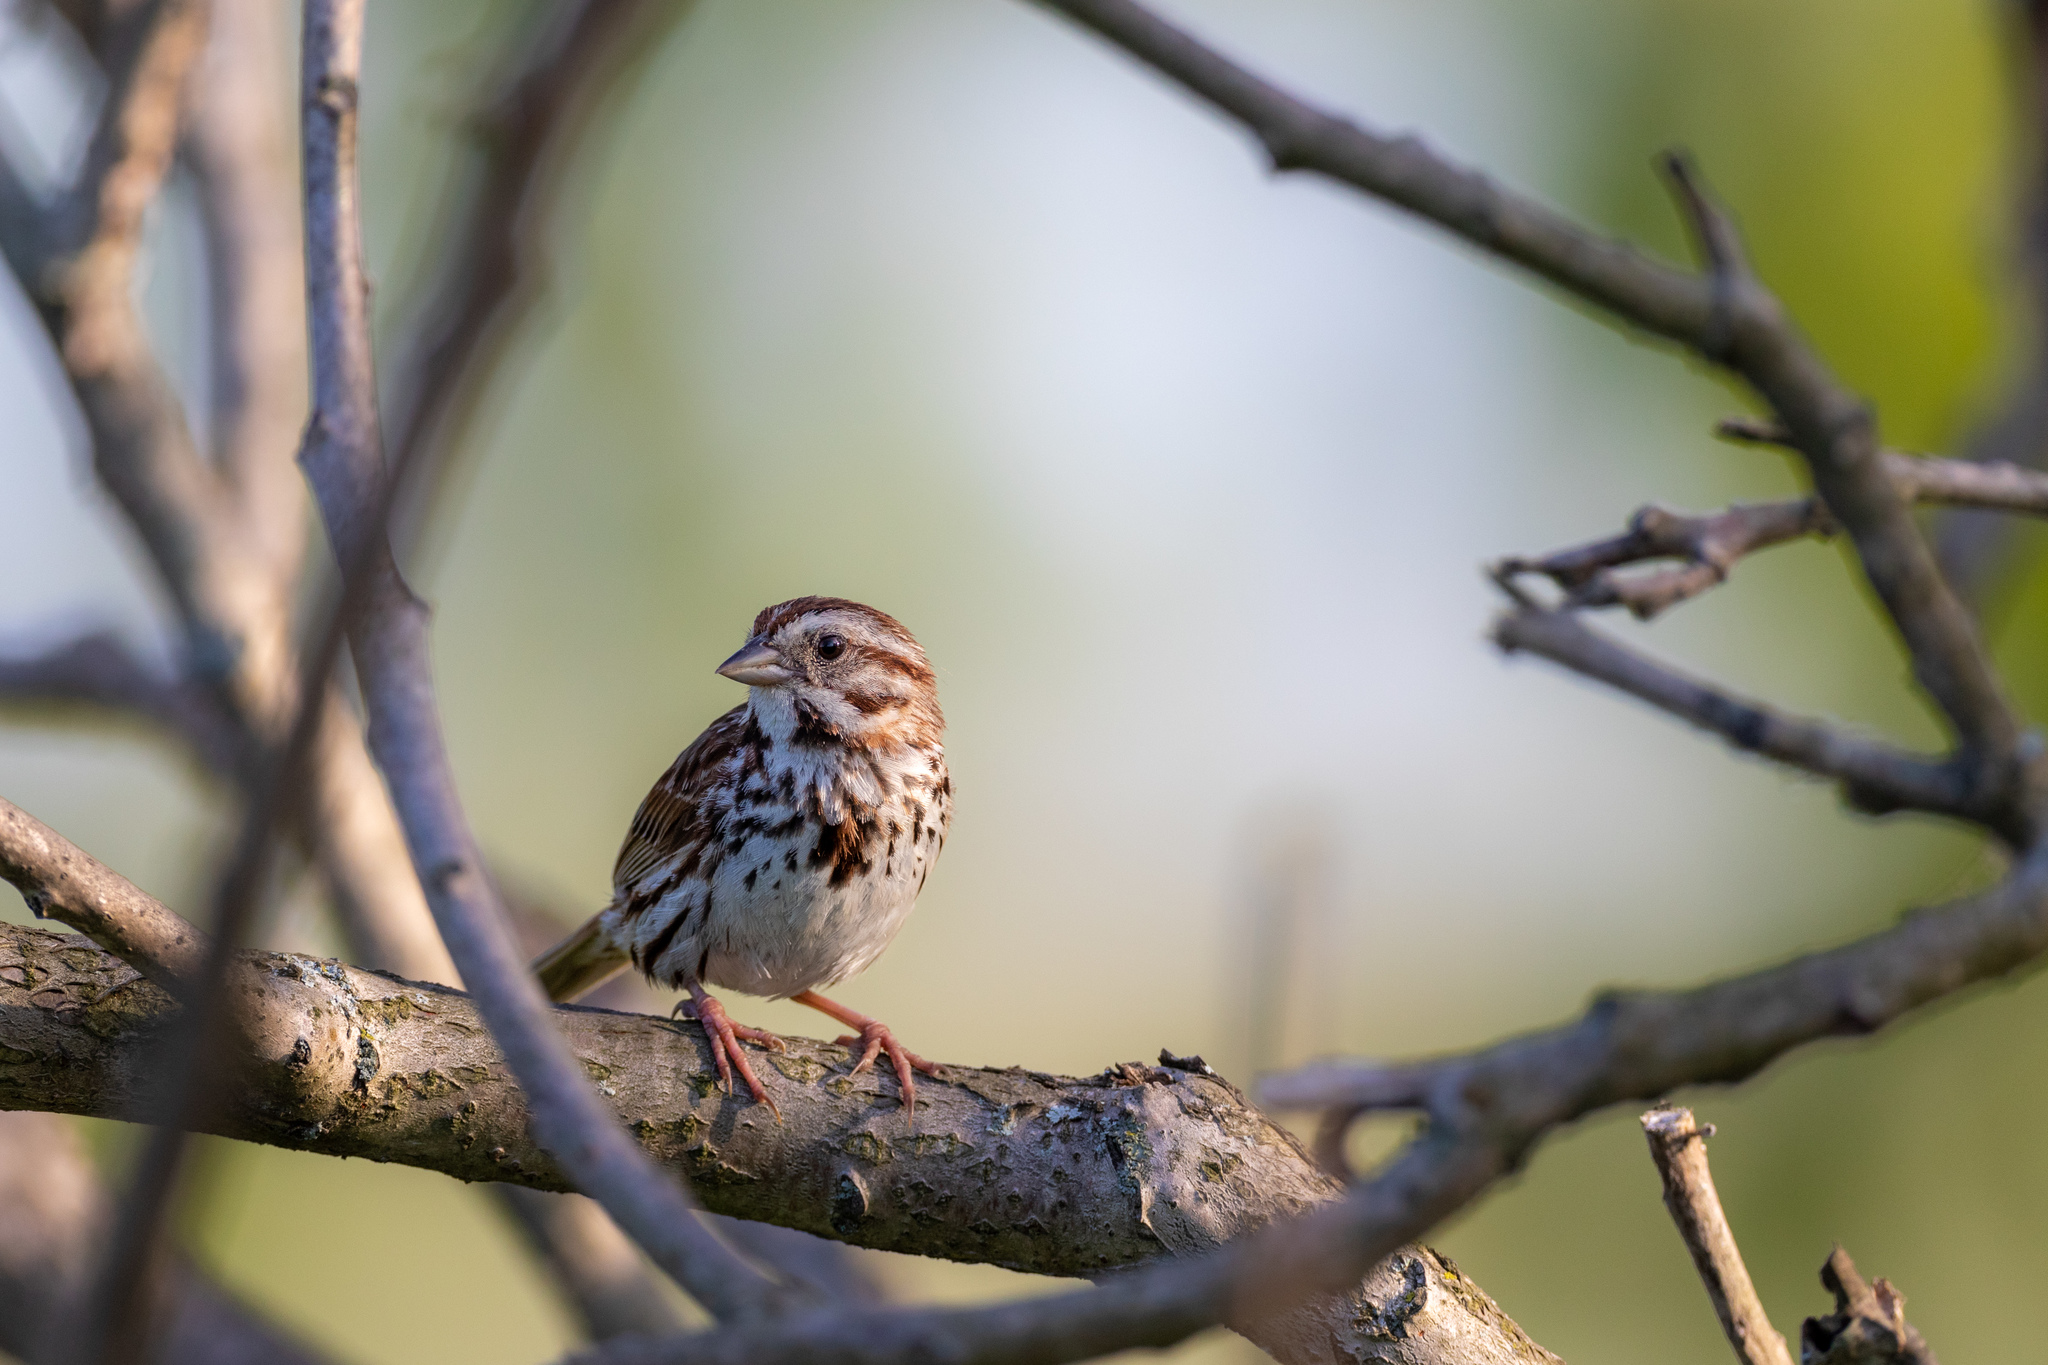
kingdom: Animalia
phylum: Chordata
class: Aves
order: Passeriformes
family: Passerellidae
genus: Melospiza
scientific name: Melospiza melodia
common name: Song sparrow
